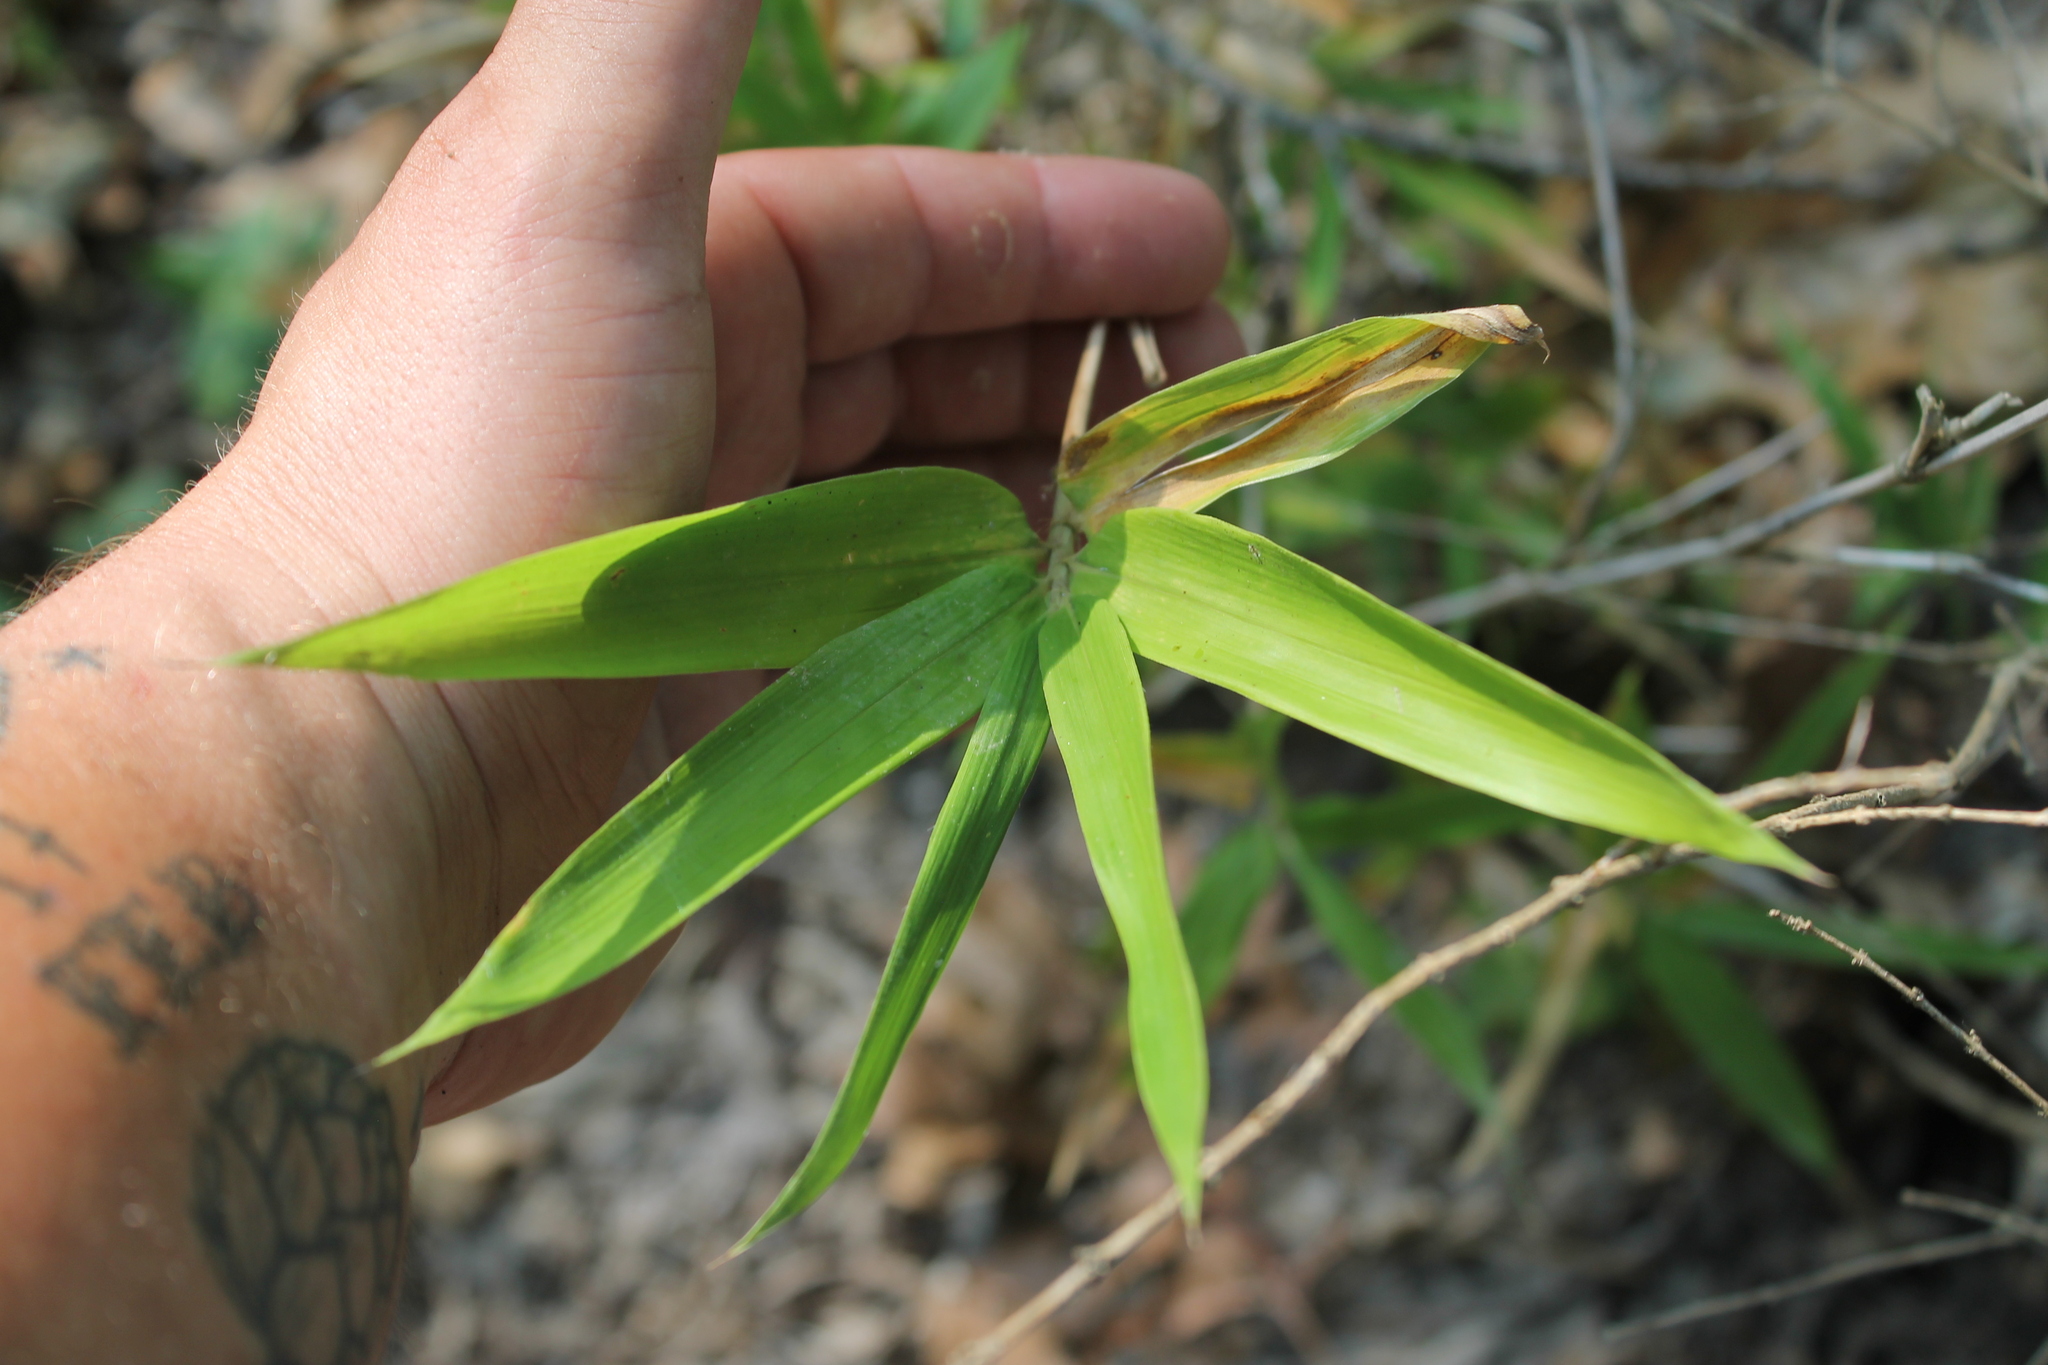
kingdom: Plantae
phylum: Tracheophyta
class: Liliopsida
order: Poales
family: Poaceae
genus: Arundinaria
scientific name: Arundinaria gigantea
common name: Giant cane
